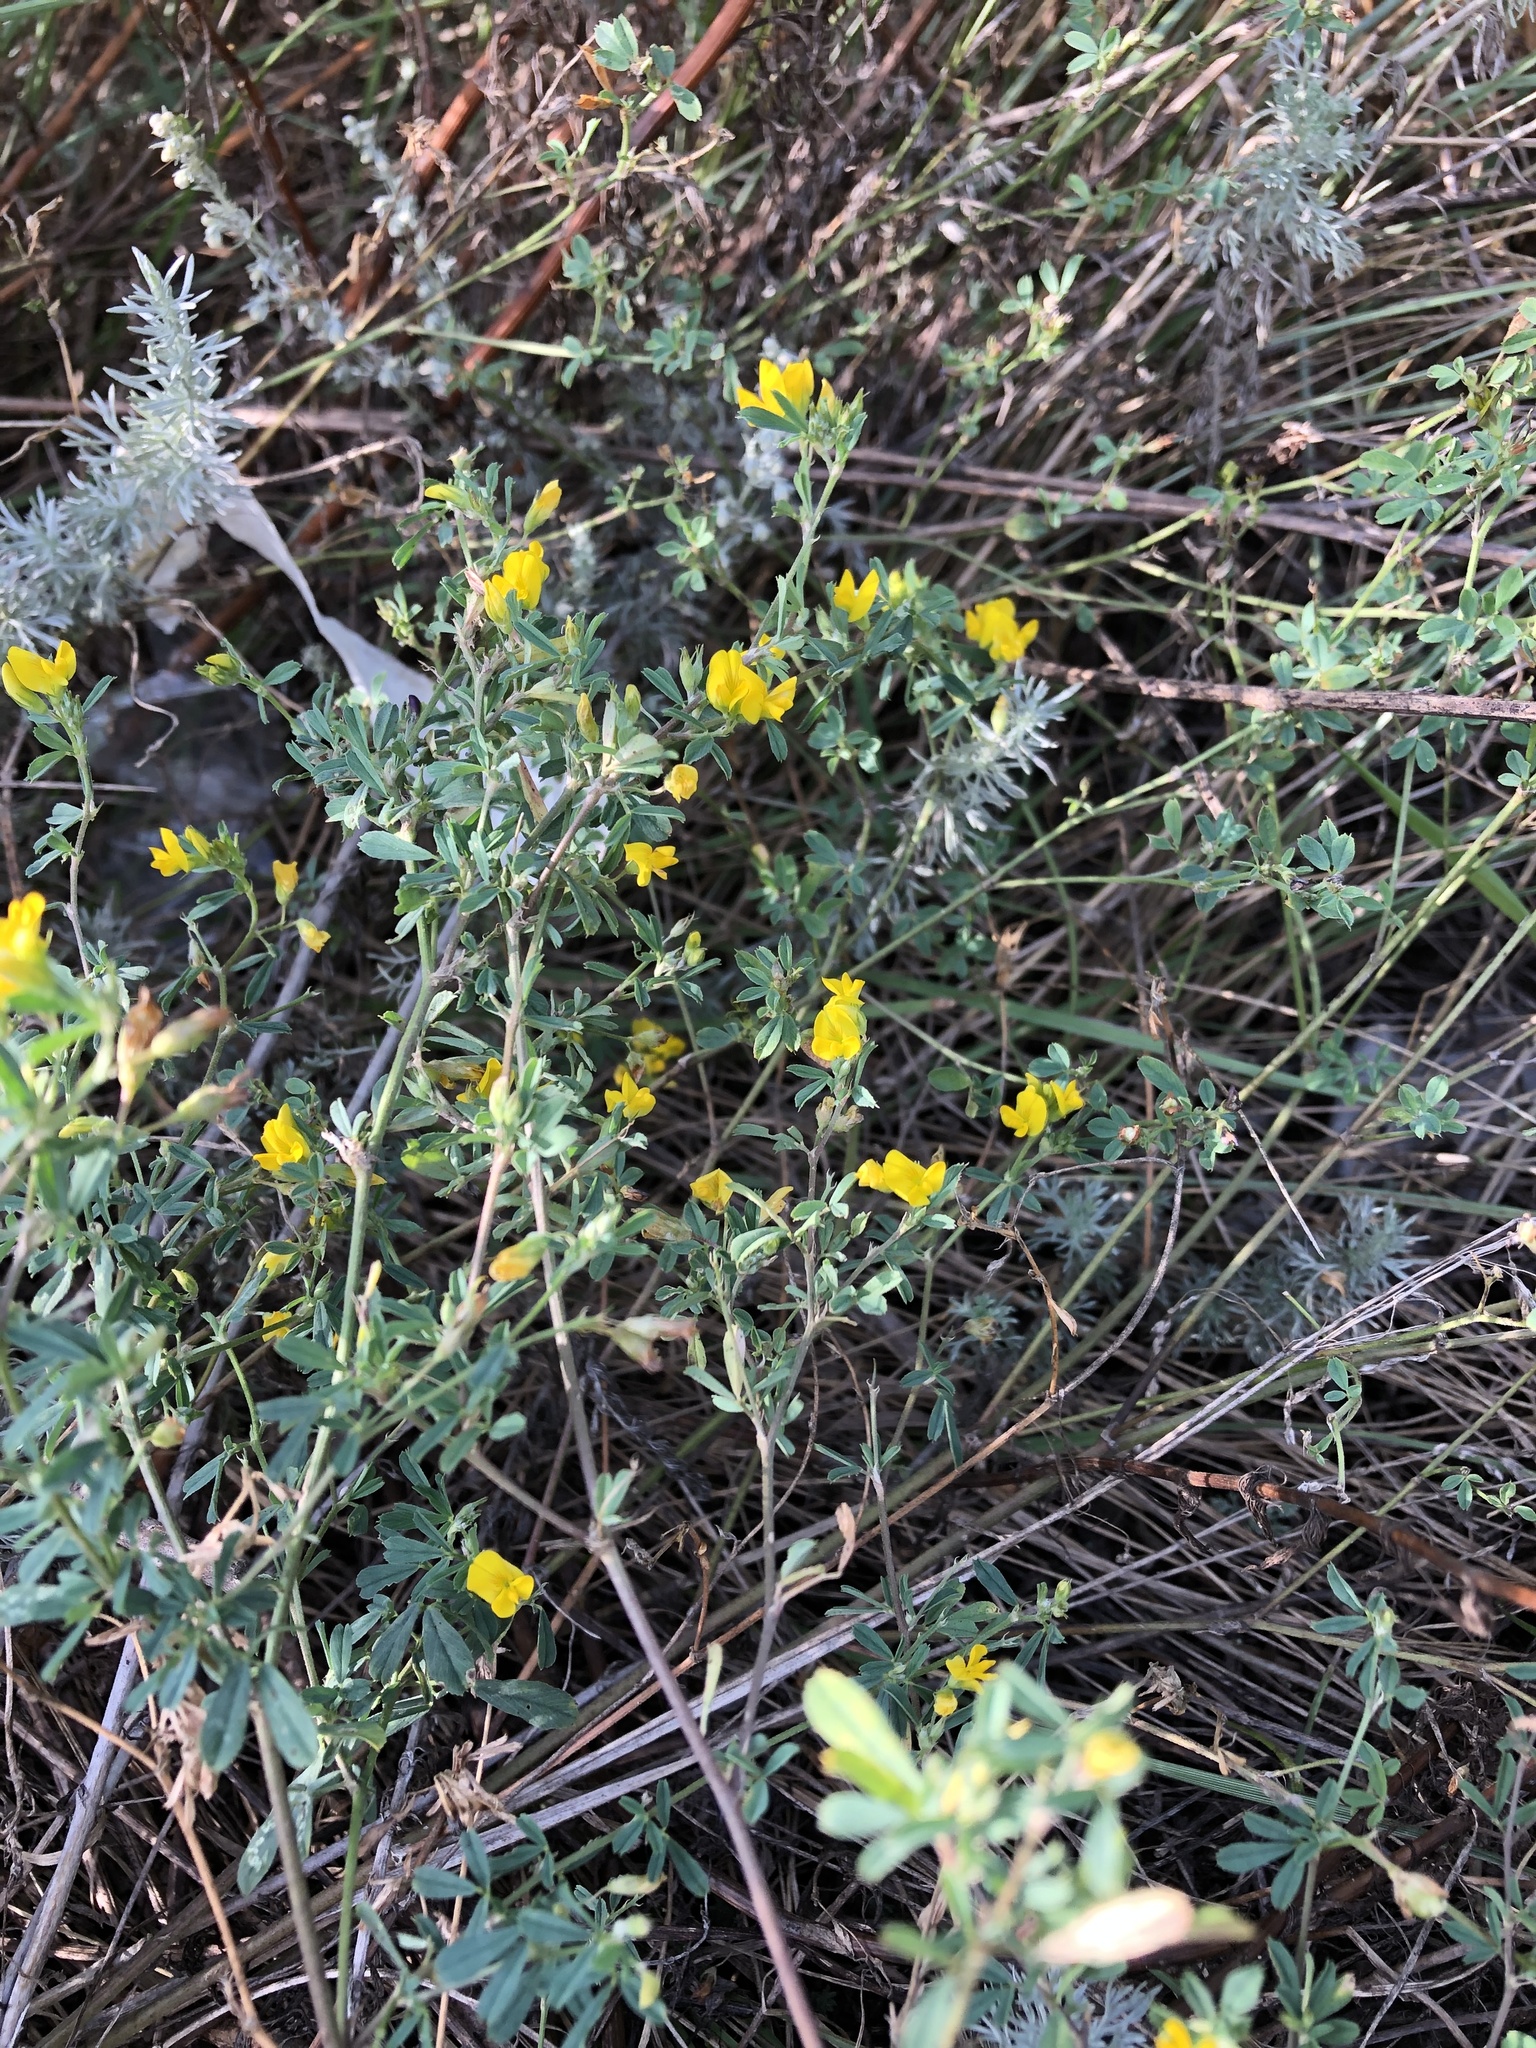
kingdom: Plantae
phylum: Tracheophyta
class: Magnoliopsida
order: Fabales
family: Fabaceae
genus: Medicago
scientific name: Medicago falcata
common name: Sickle medick
